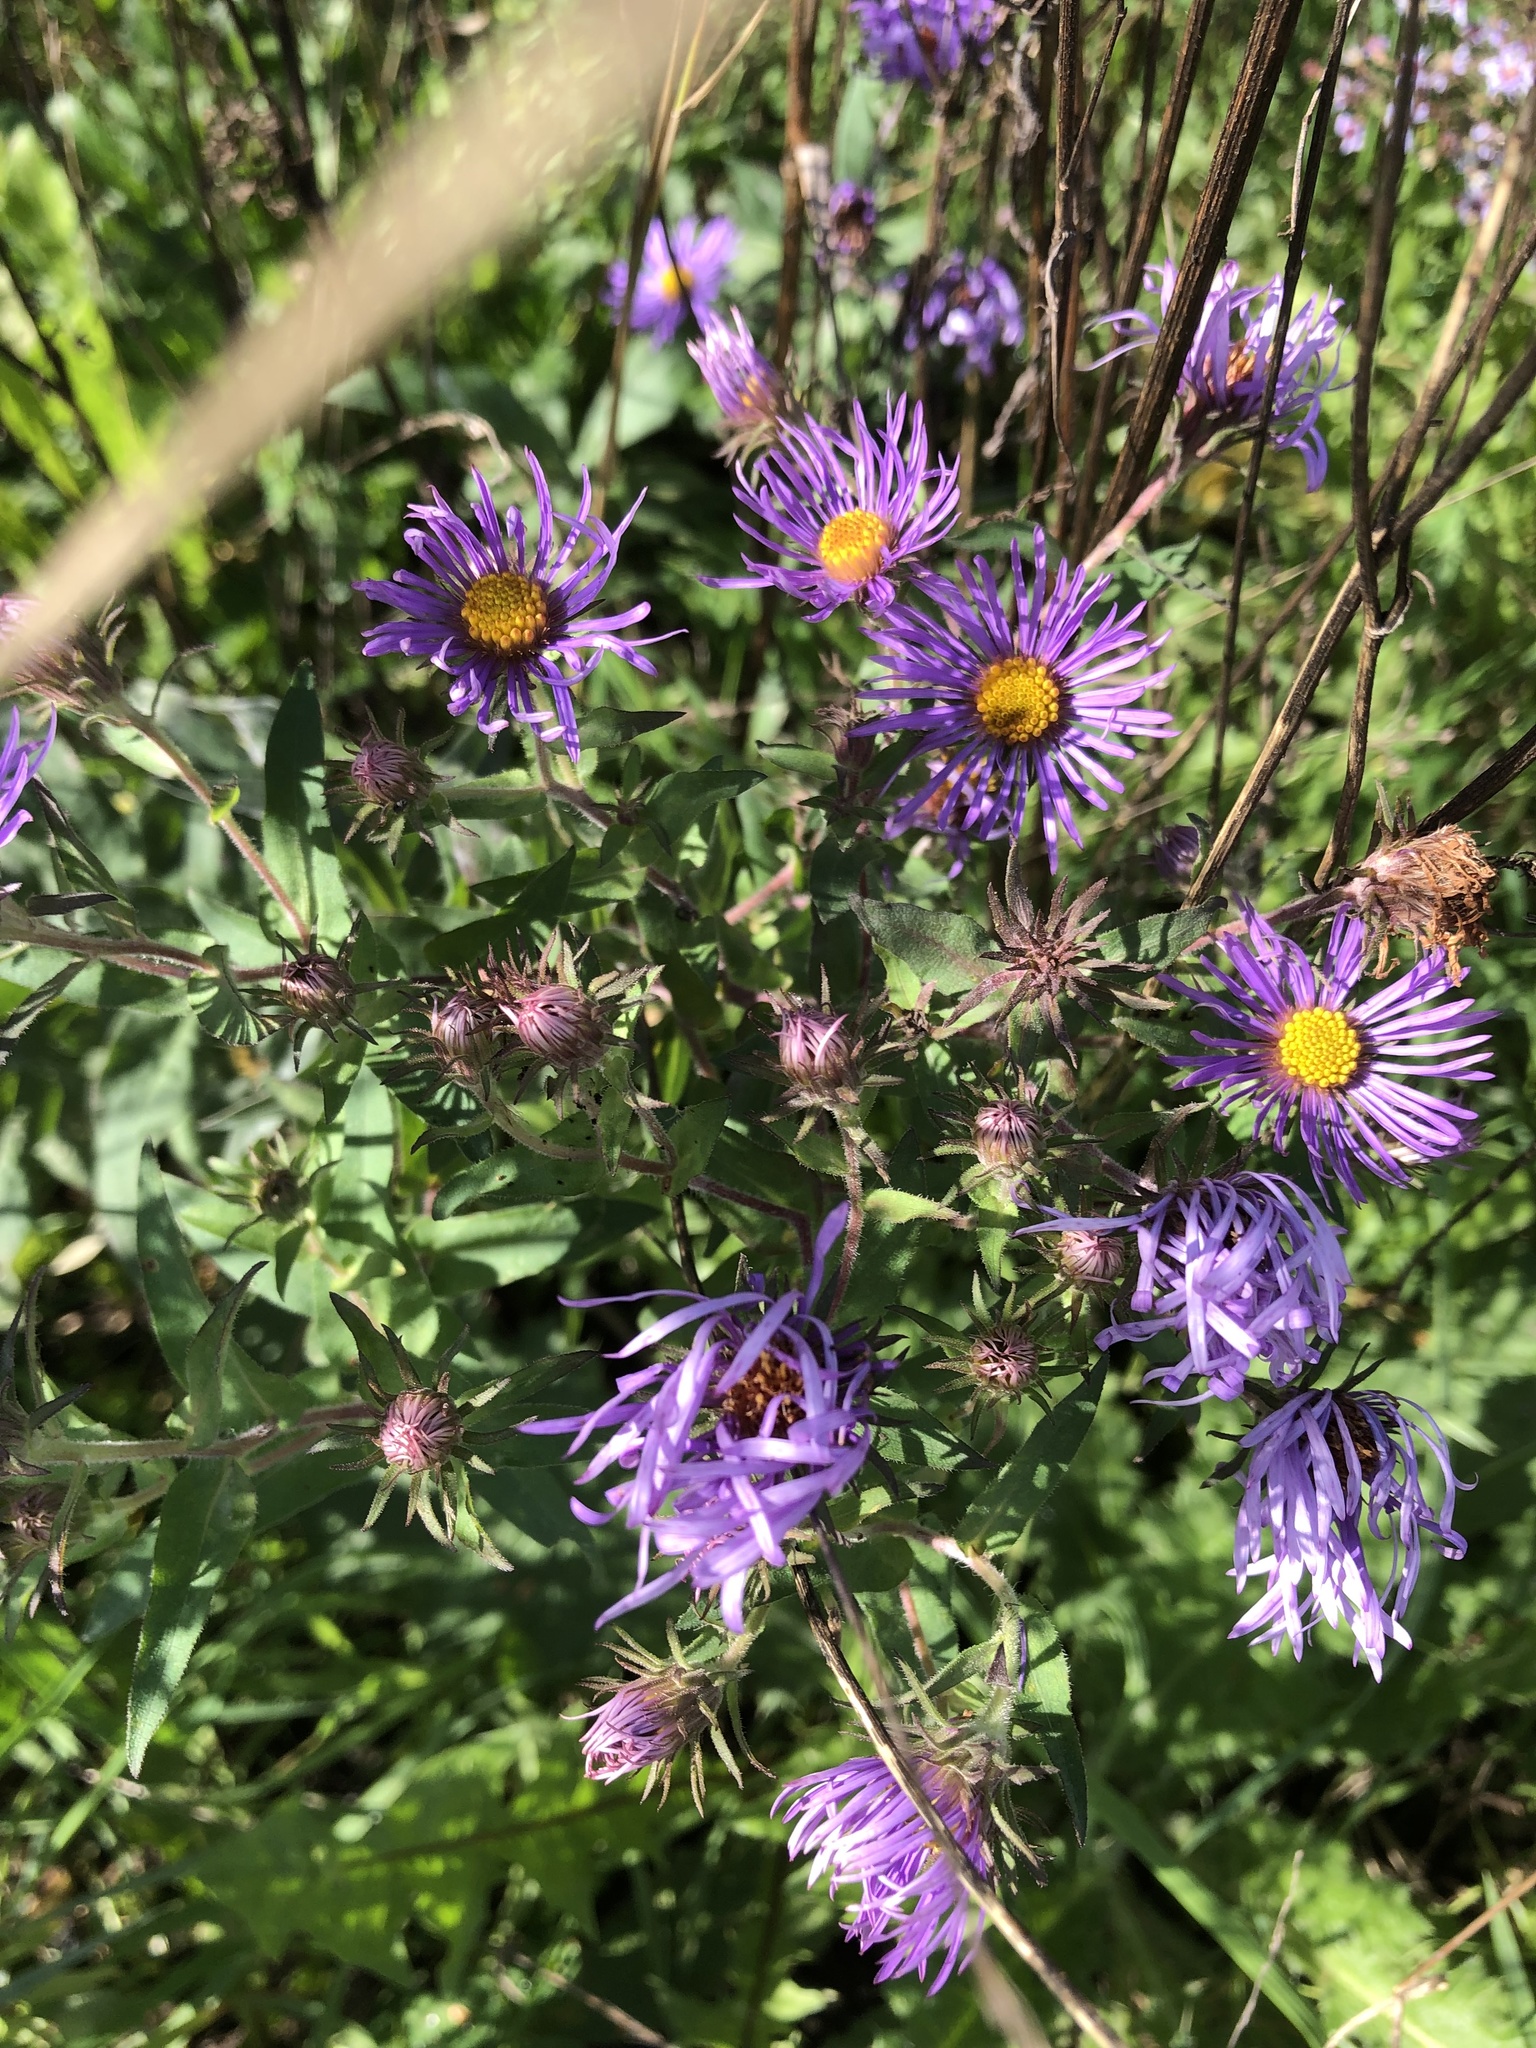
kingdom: Plantae
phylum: Tracheophyta
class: Magnoliopsida
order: Asterales
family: Asteraceae
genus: Symphyotrichum
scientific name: Symphyotrichum novae-angliae
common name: Michaelmas daisy
